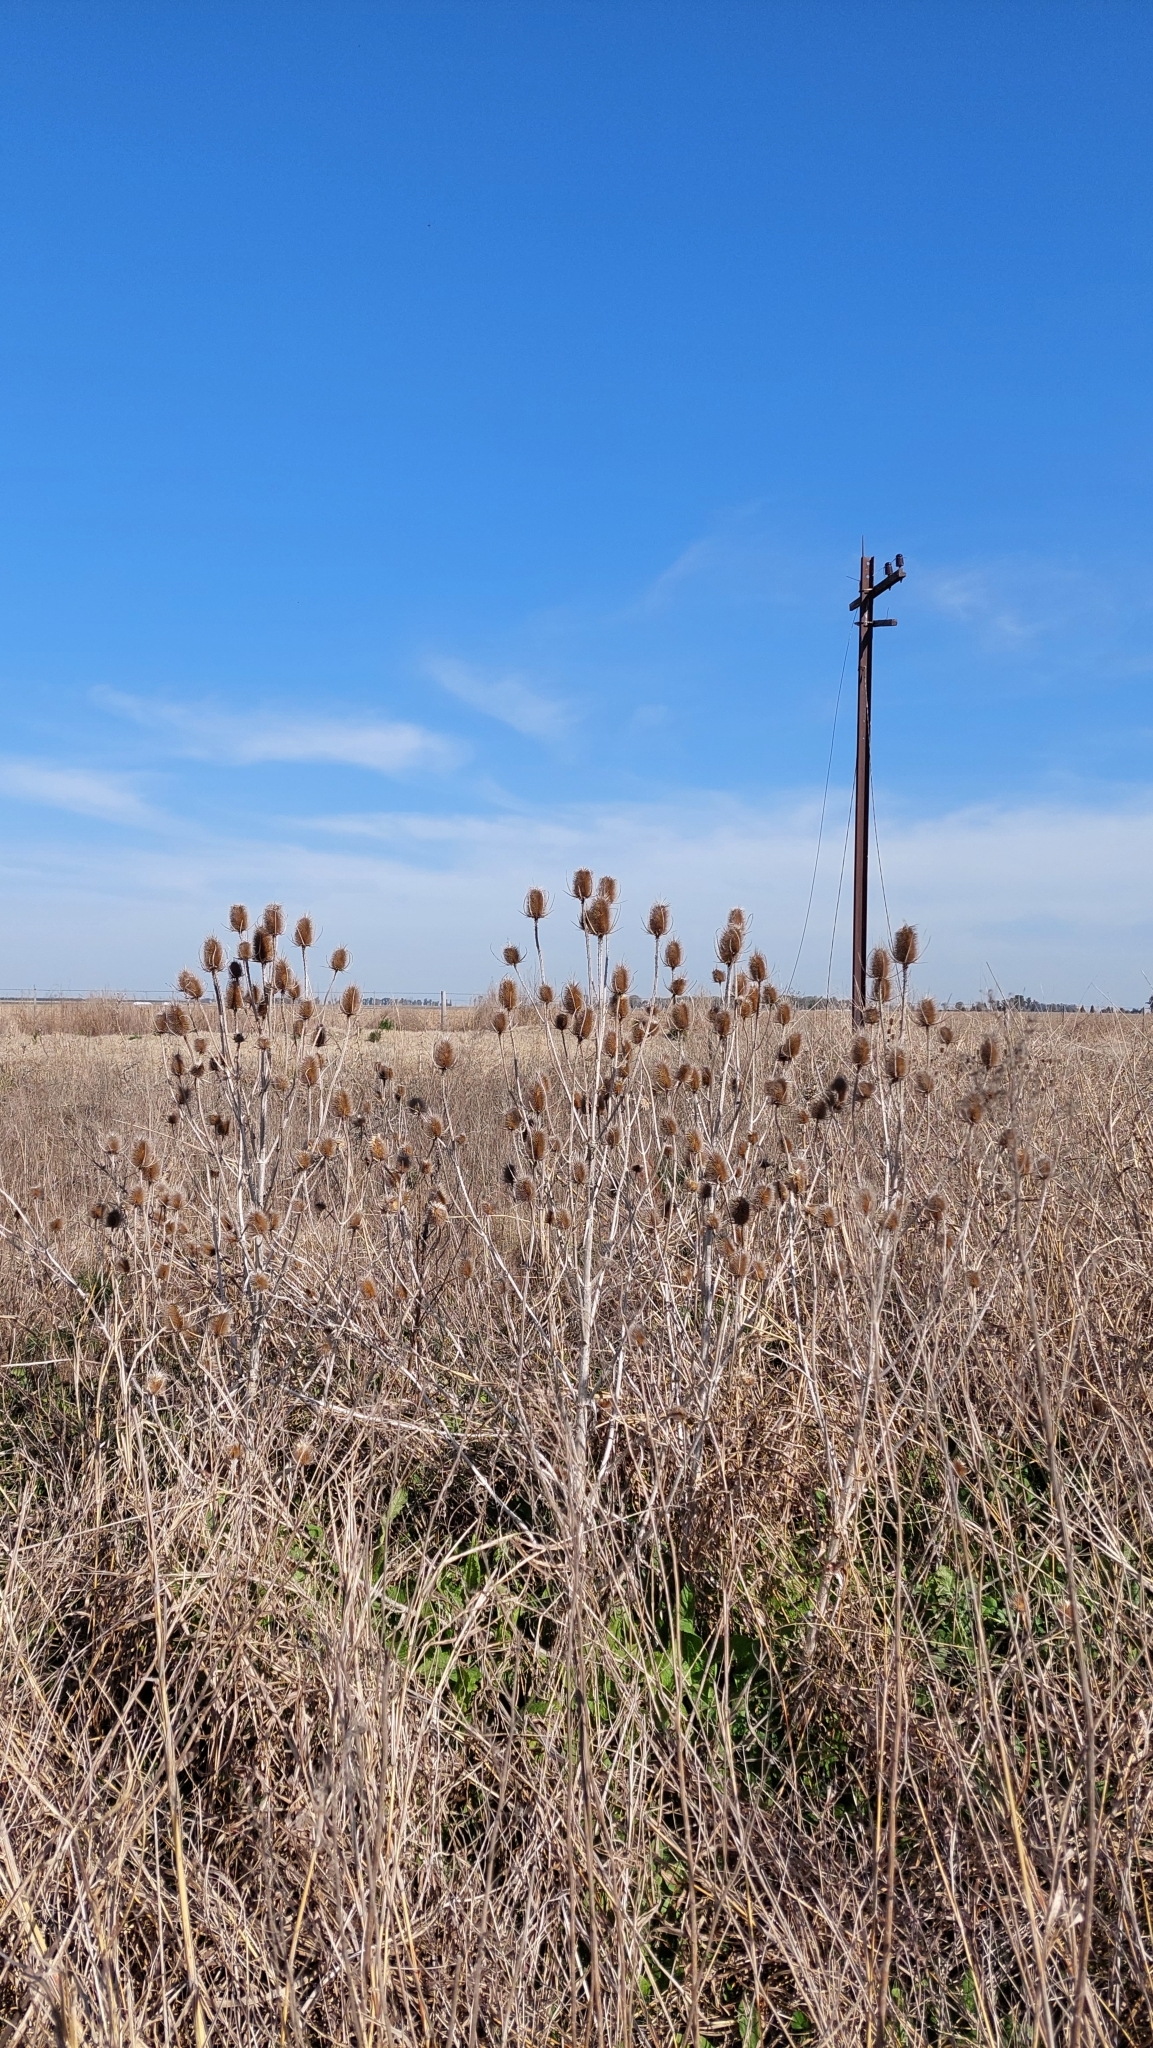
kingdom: Plantae
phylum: Tracheophyta
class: Magnoliopsida
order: Dipsacales
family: Caprifoliaceae
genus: Dipsacus
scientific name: Dipsacus fullonum
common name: Teasel
